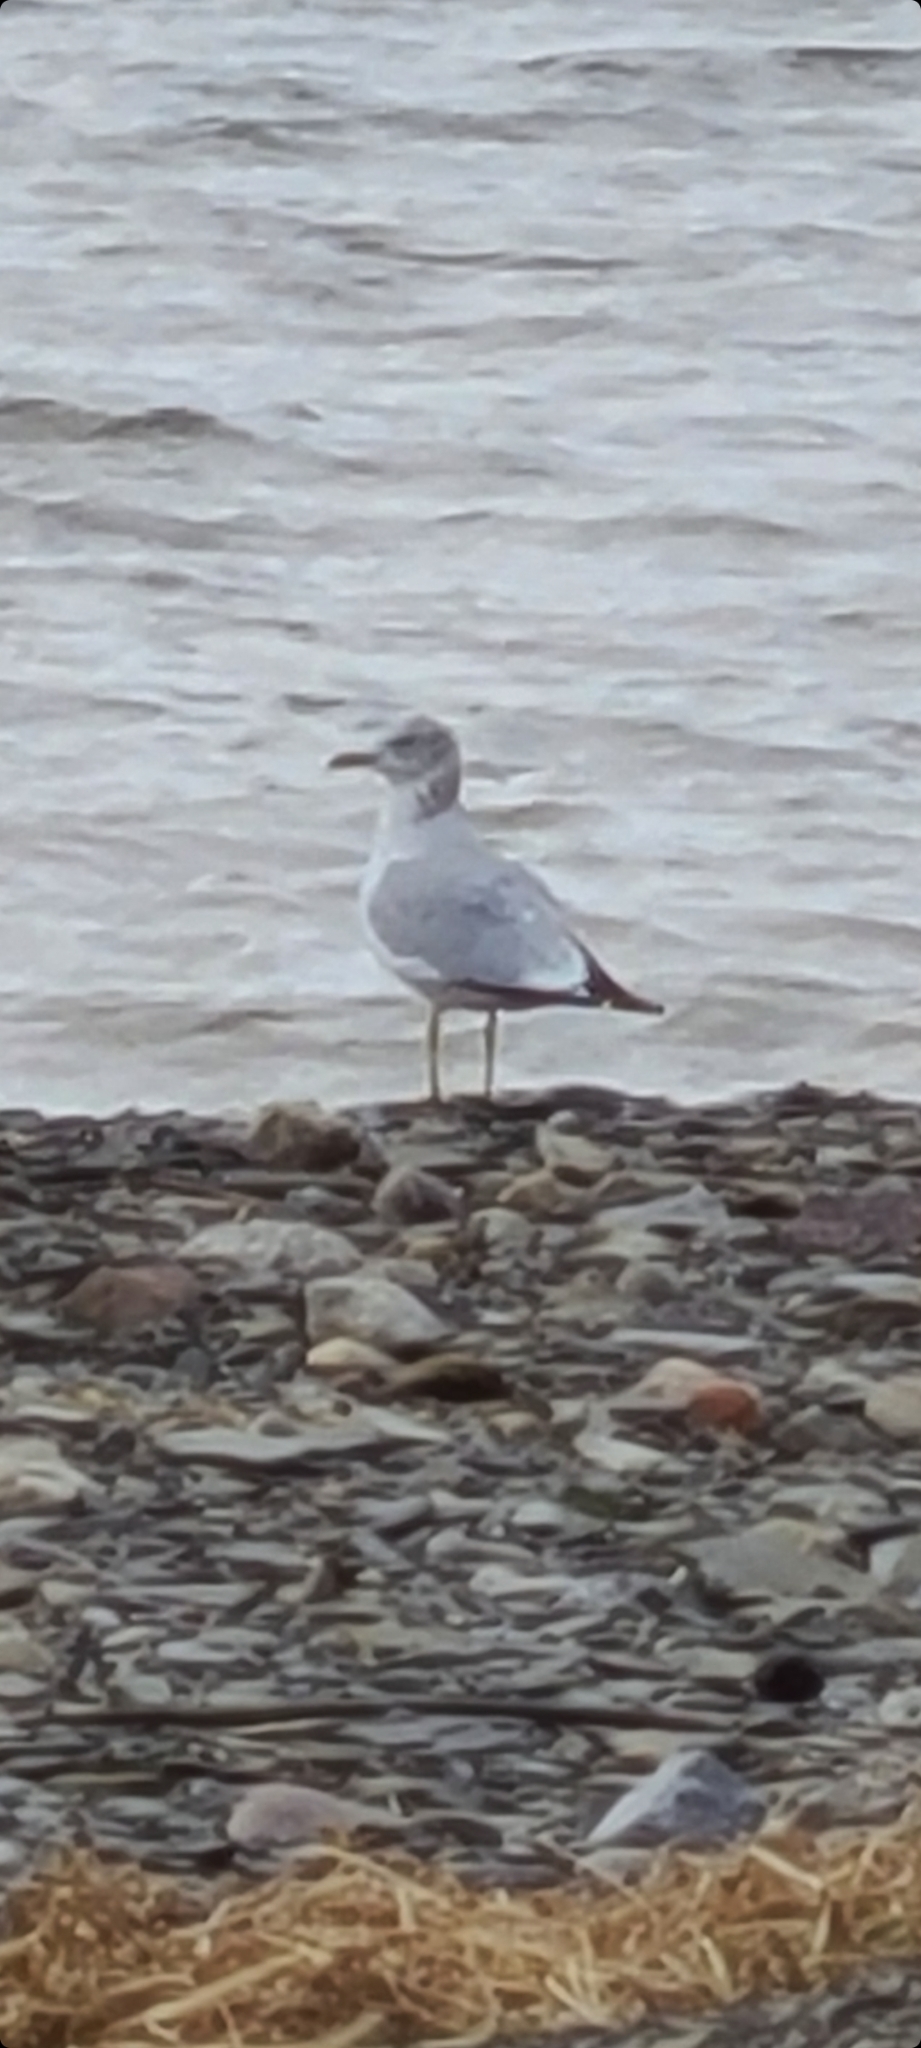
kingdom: Animalia
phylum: Chordata
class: Aves
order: Charadriiformes
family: Laridae
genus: Larus
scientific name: Larus argentatus
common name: Herring gull
